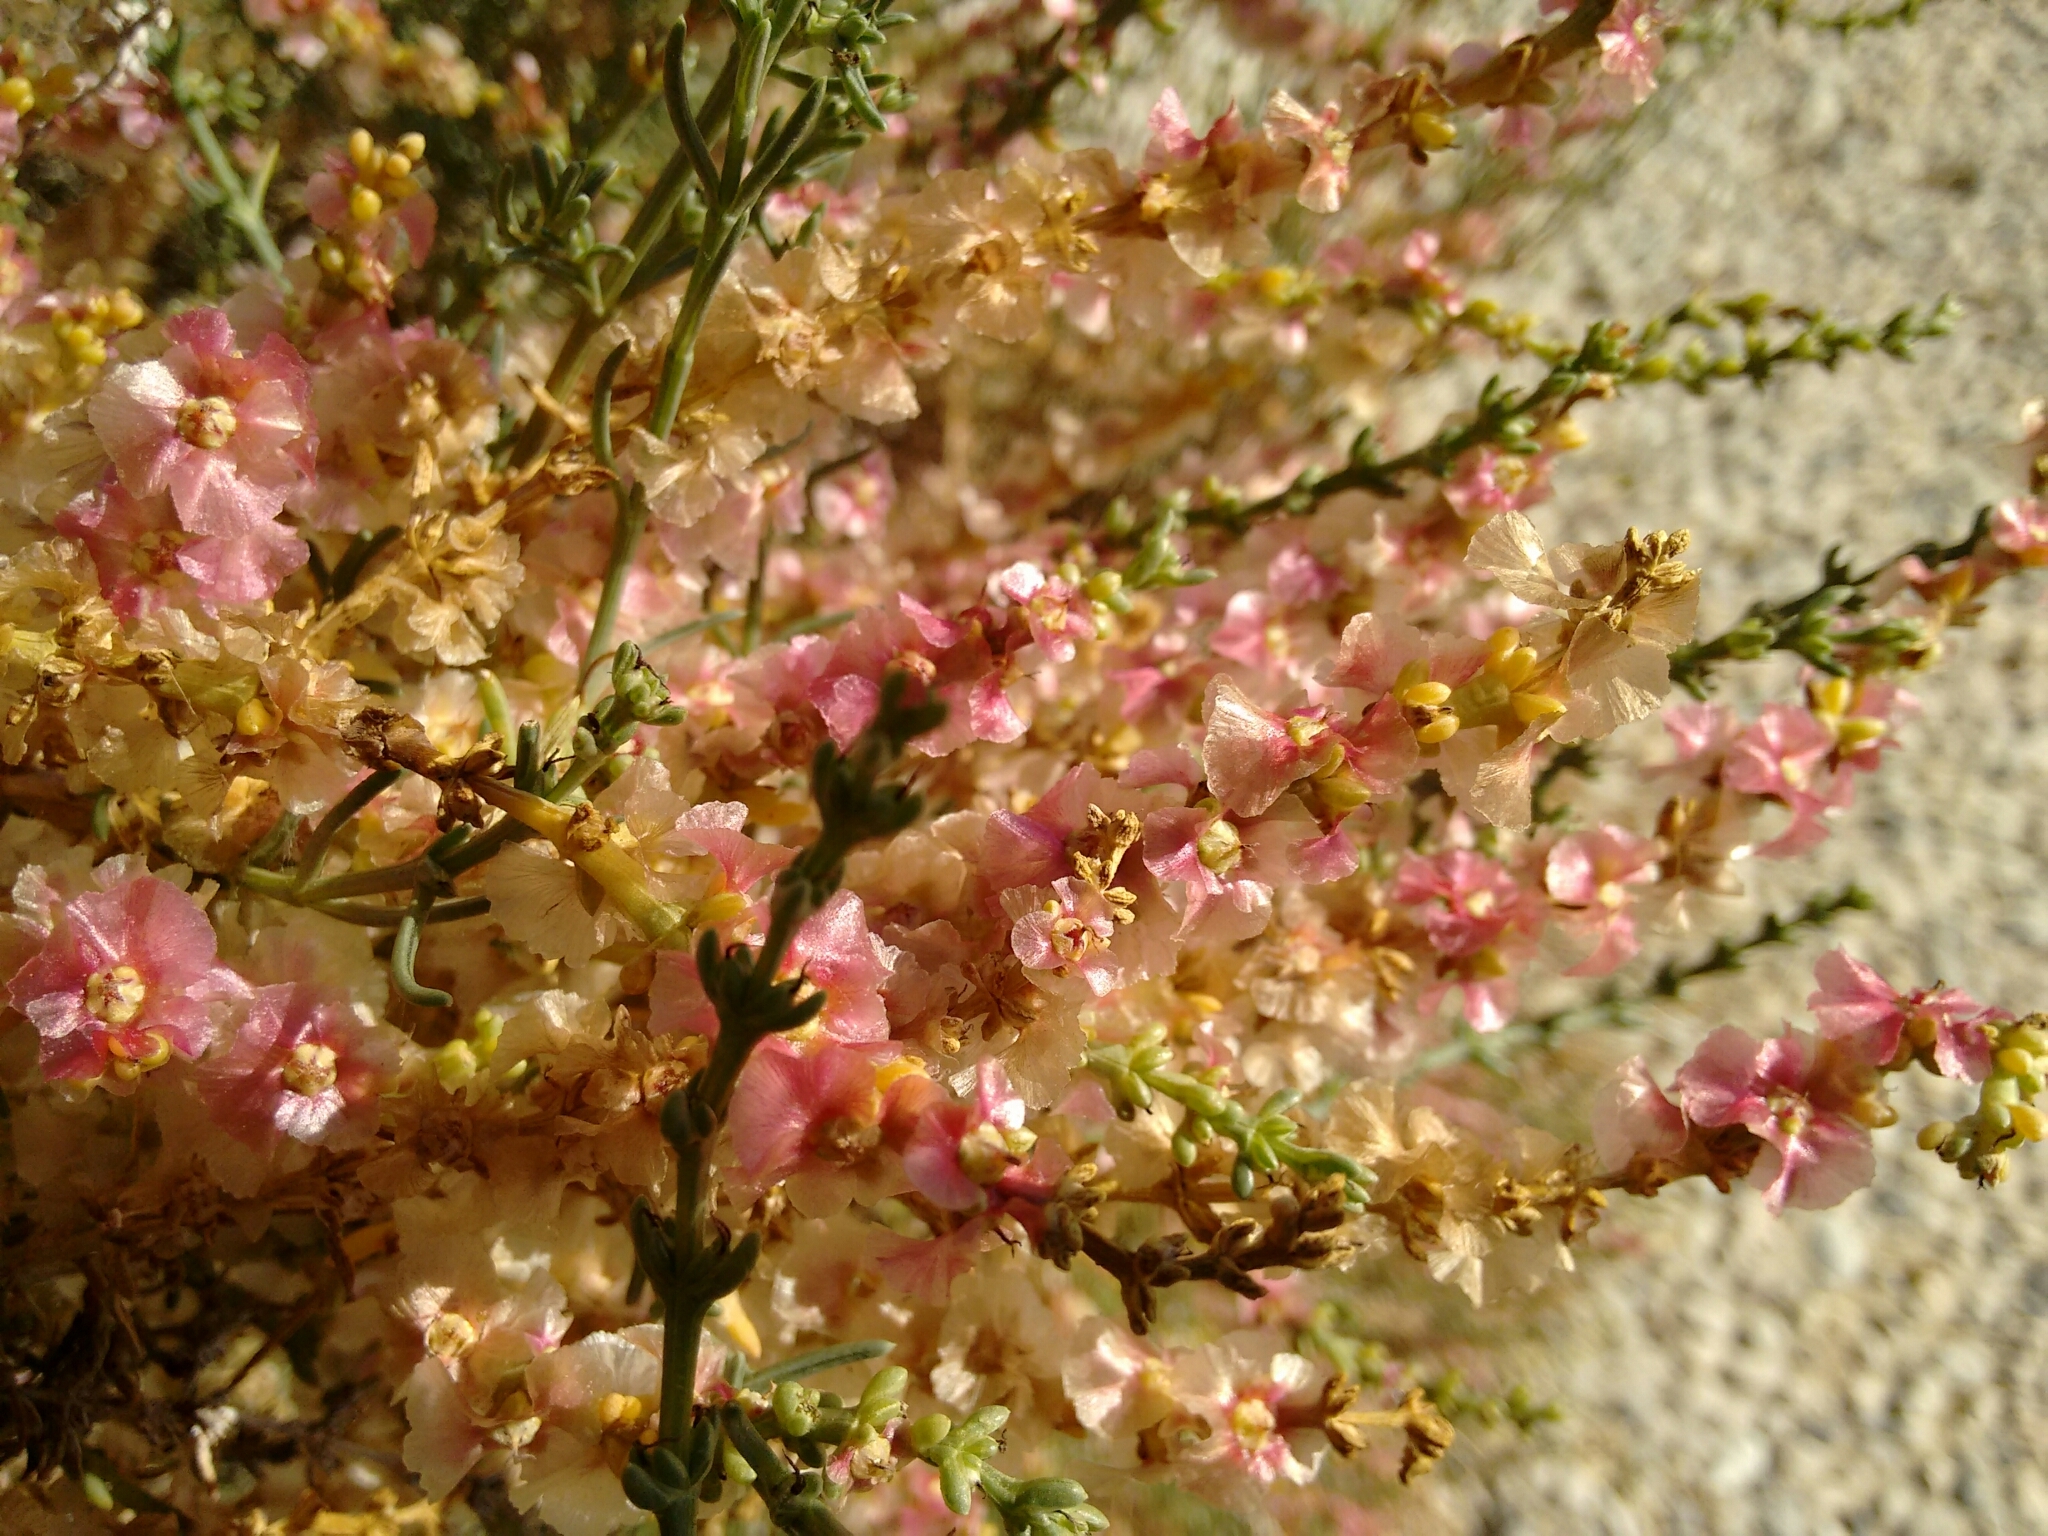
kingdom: Plantae
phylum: Tracheophyta
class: Magnoliopsida
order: Caryophyllales
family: Amaranthaceae
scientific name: Amaranthaceae
